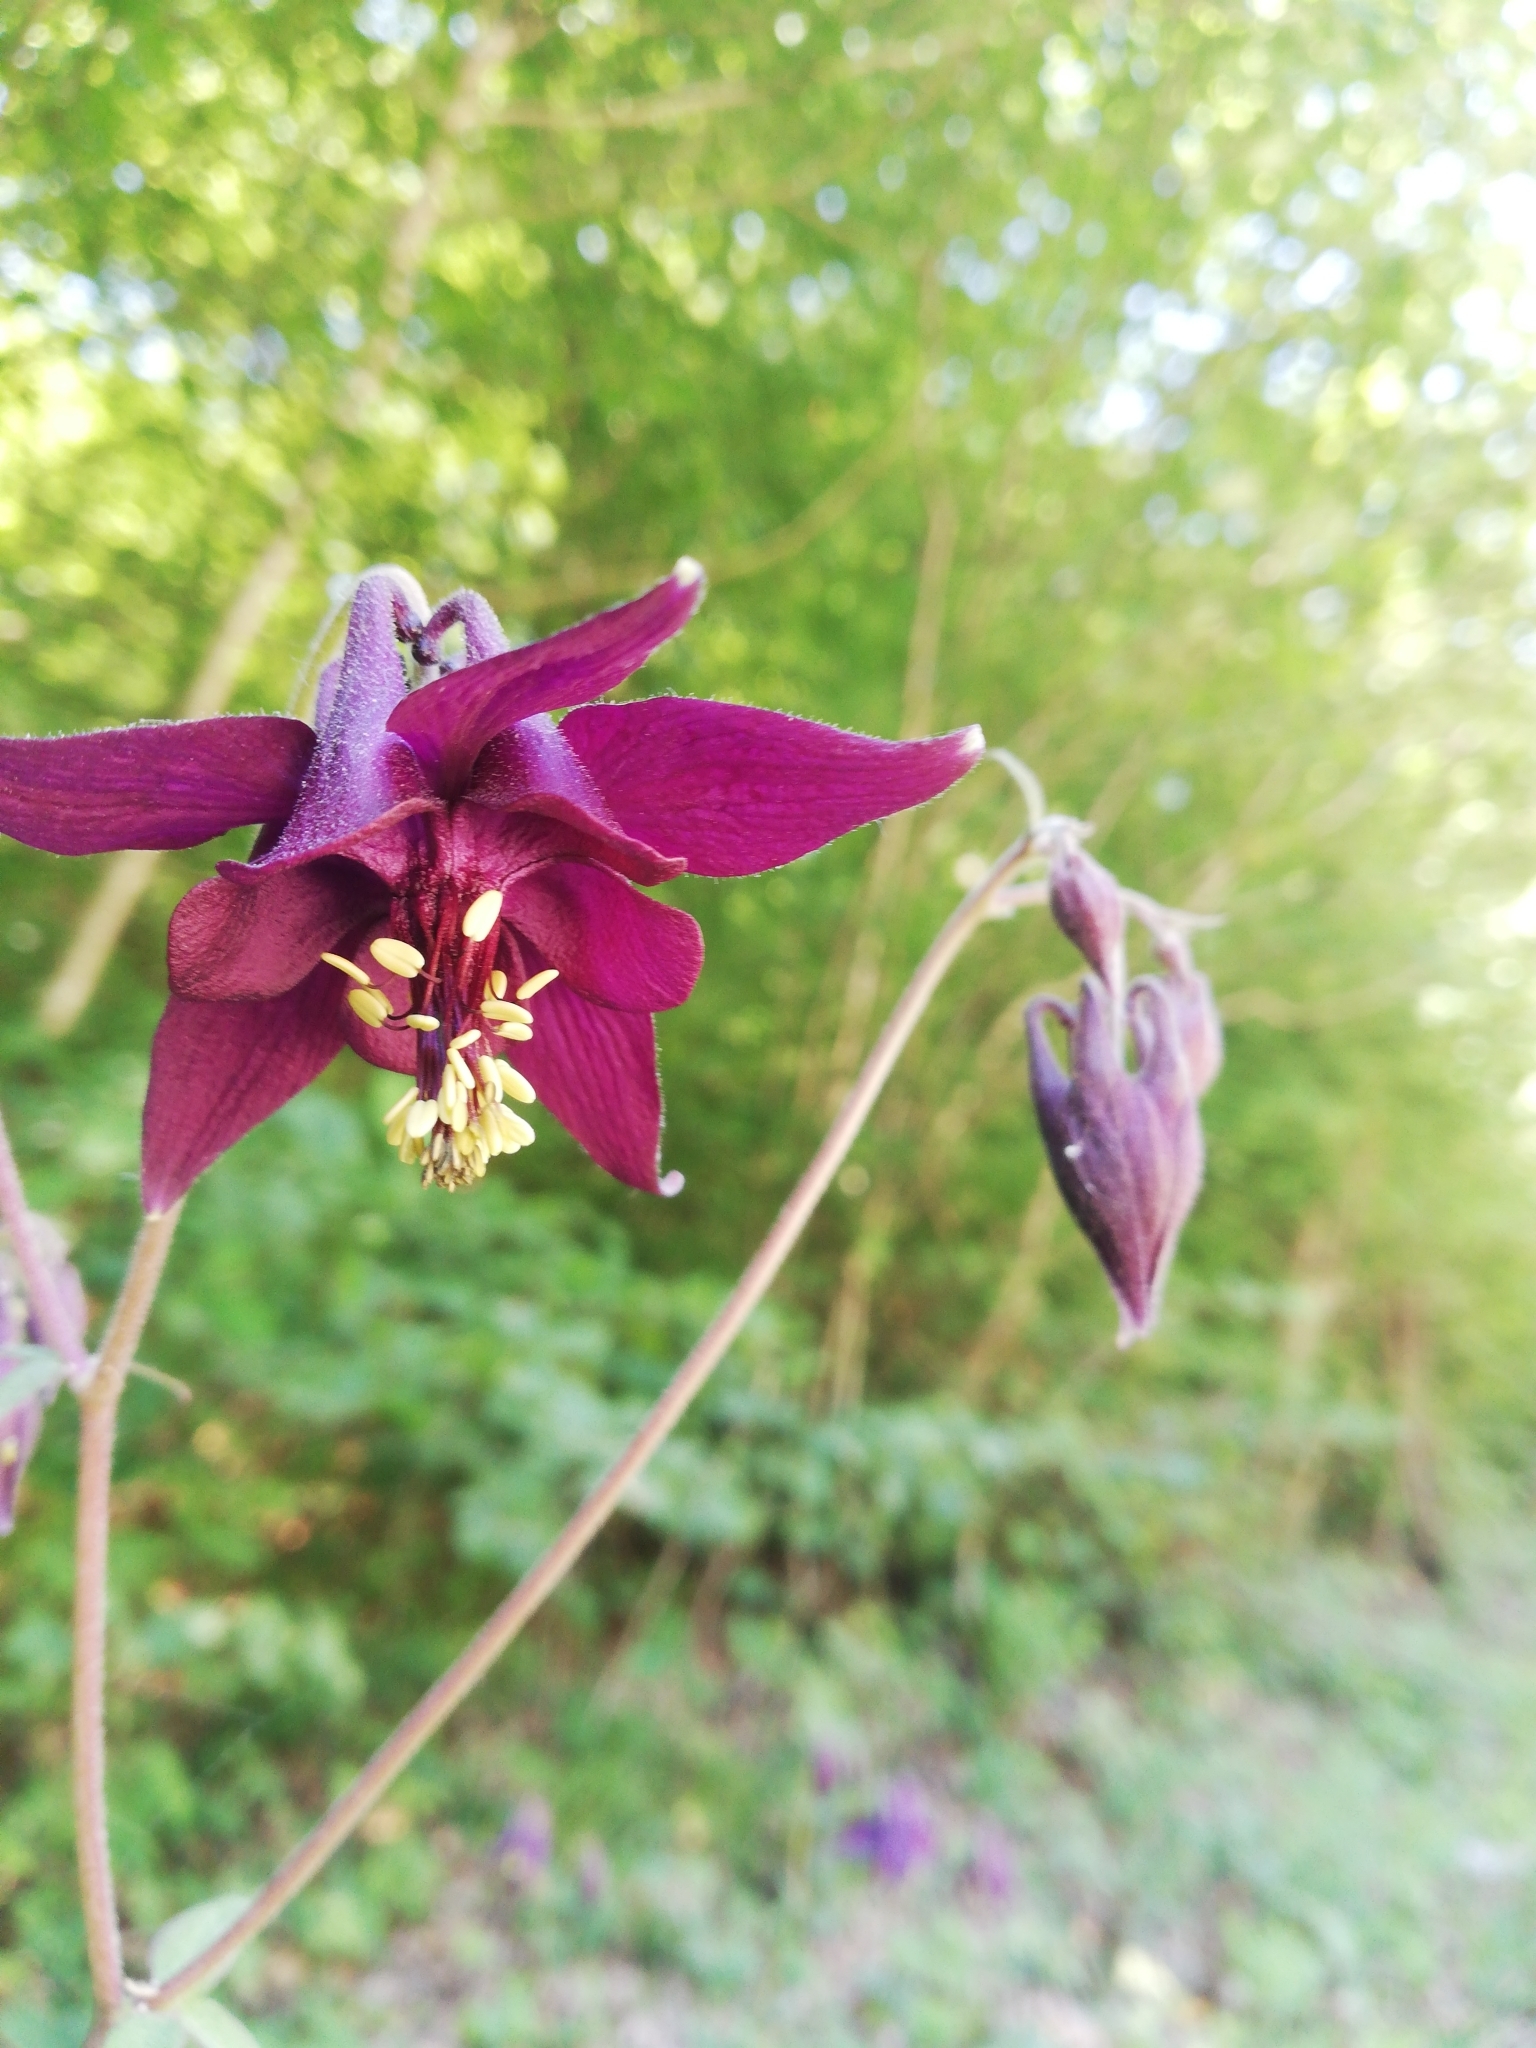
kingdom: Plantae
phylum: Tracheophyta
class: Magnoliopsida
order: Ranunculales
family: Ranunculaceae
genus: Aquilegia
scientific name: Aquilegia atrata
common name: Dark columbine
